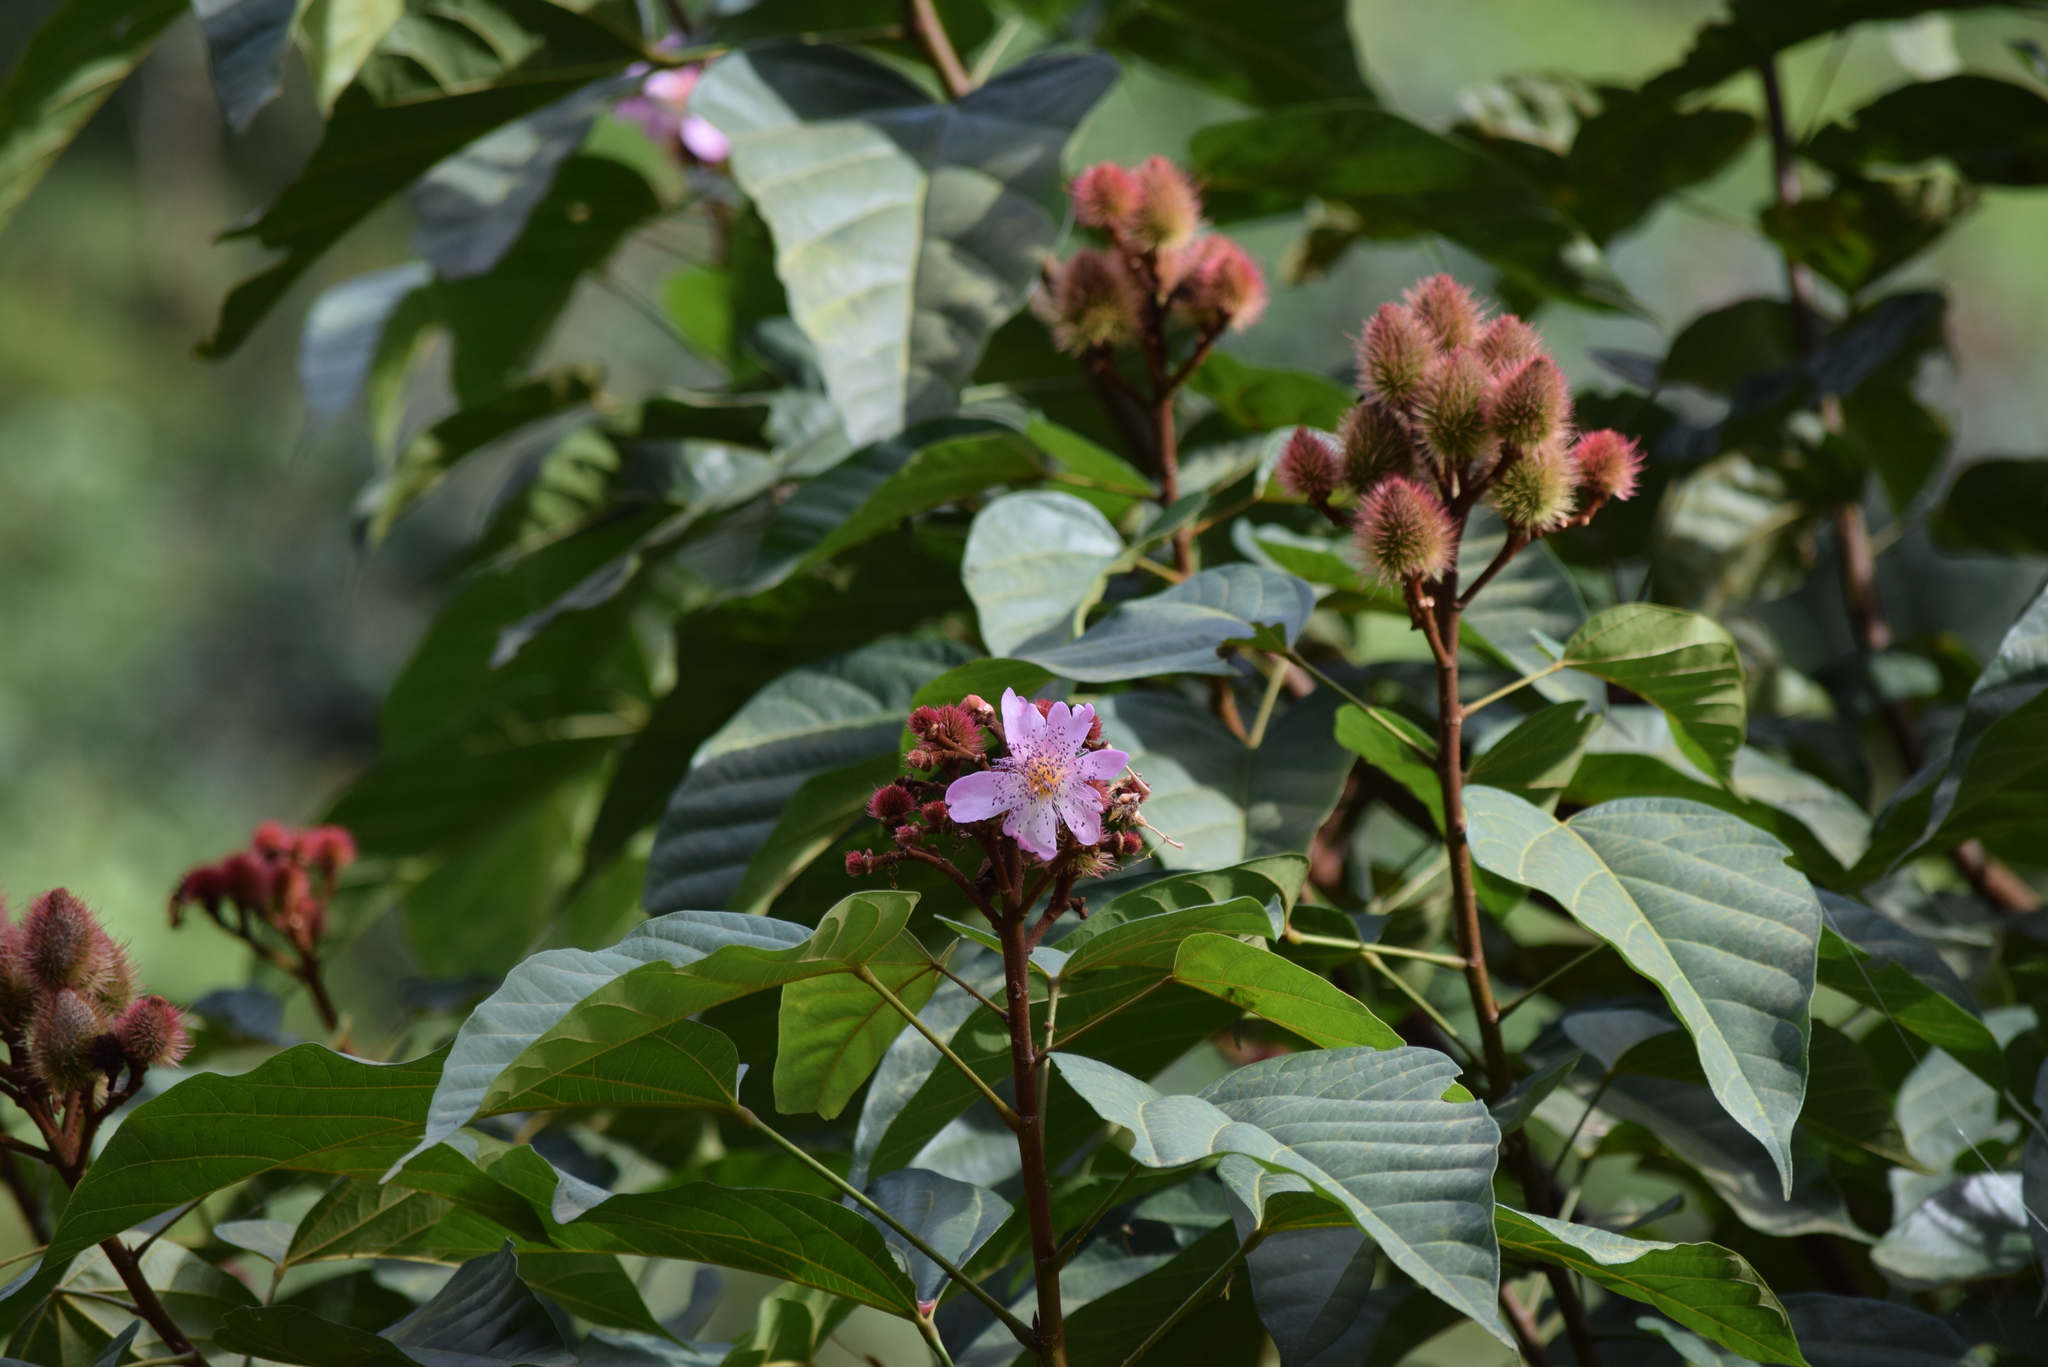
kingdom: Plantae
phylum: Tracheophyta
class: Magnoliopsida
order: Malvales
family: Bixaceae
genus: Bixa
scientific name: Bixa orellana
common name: Lipsticktree
